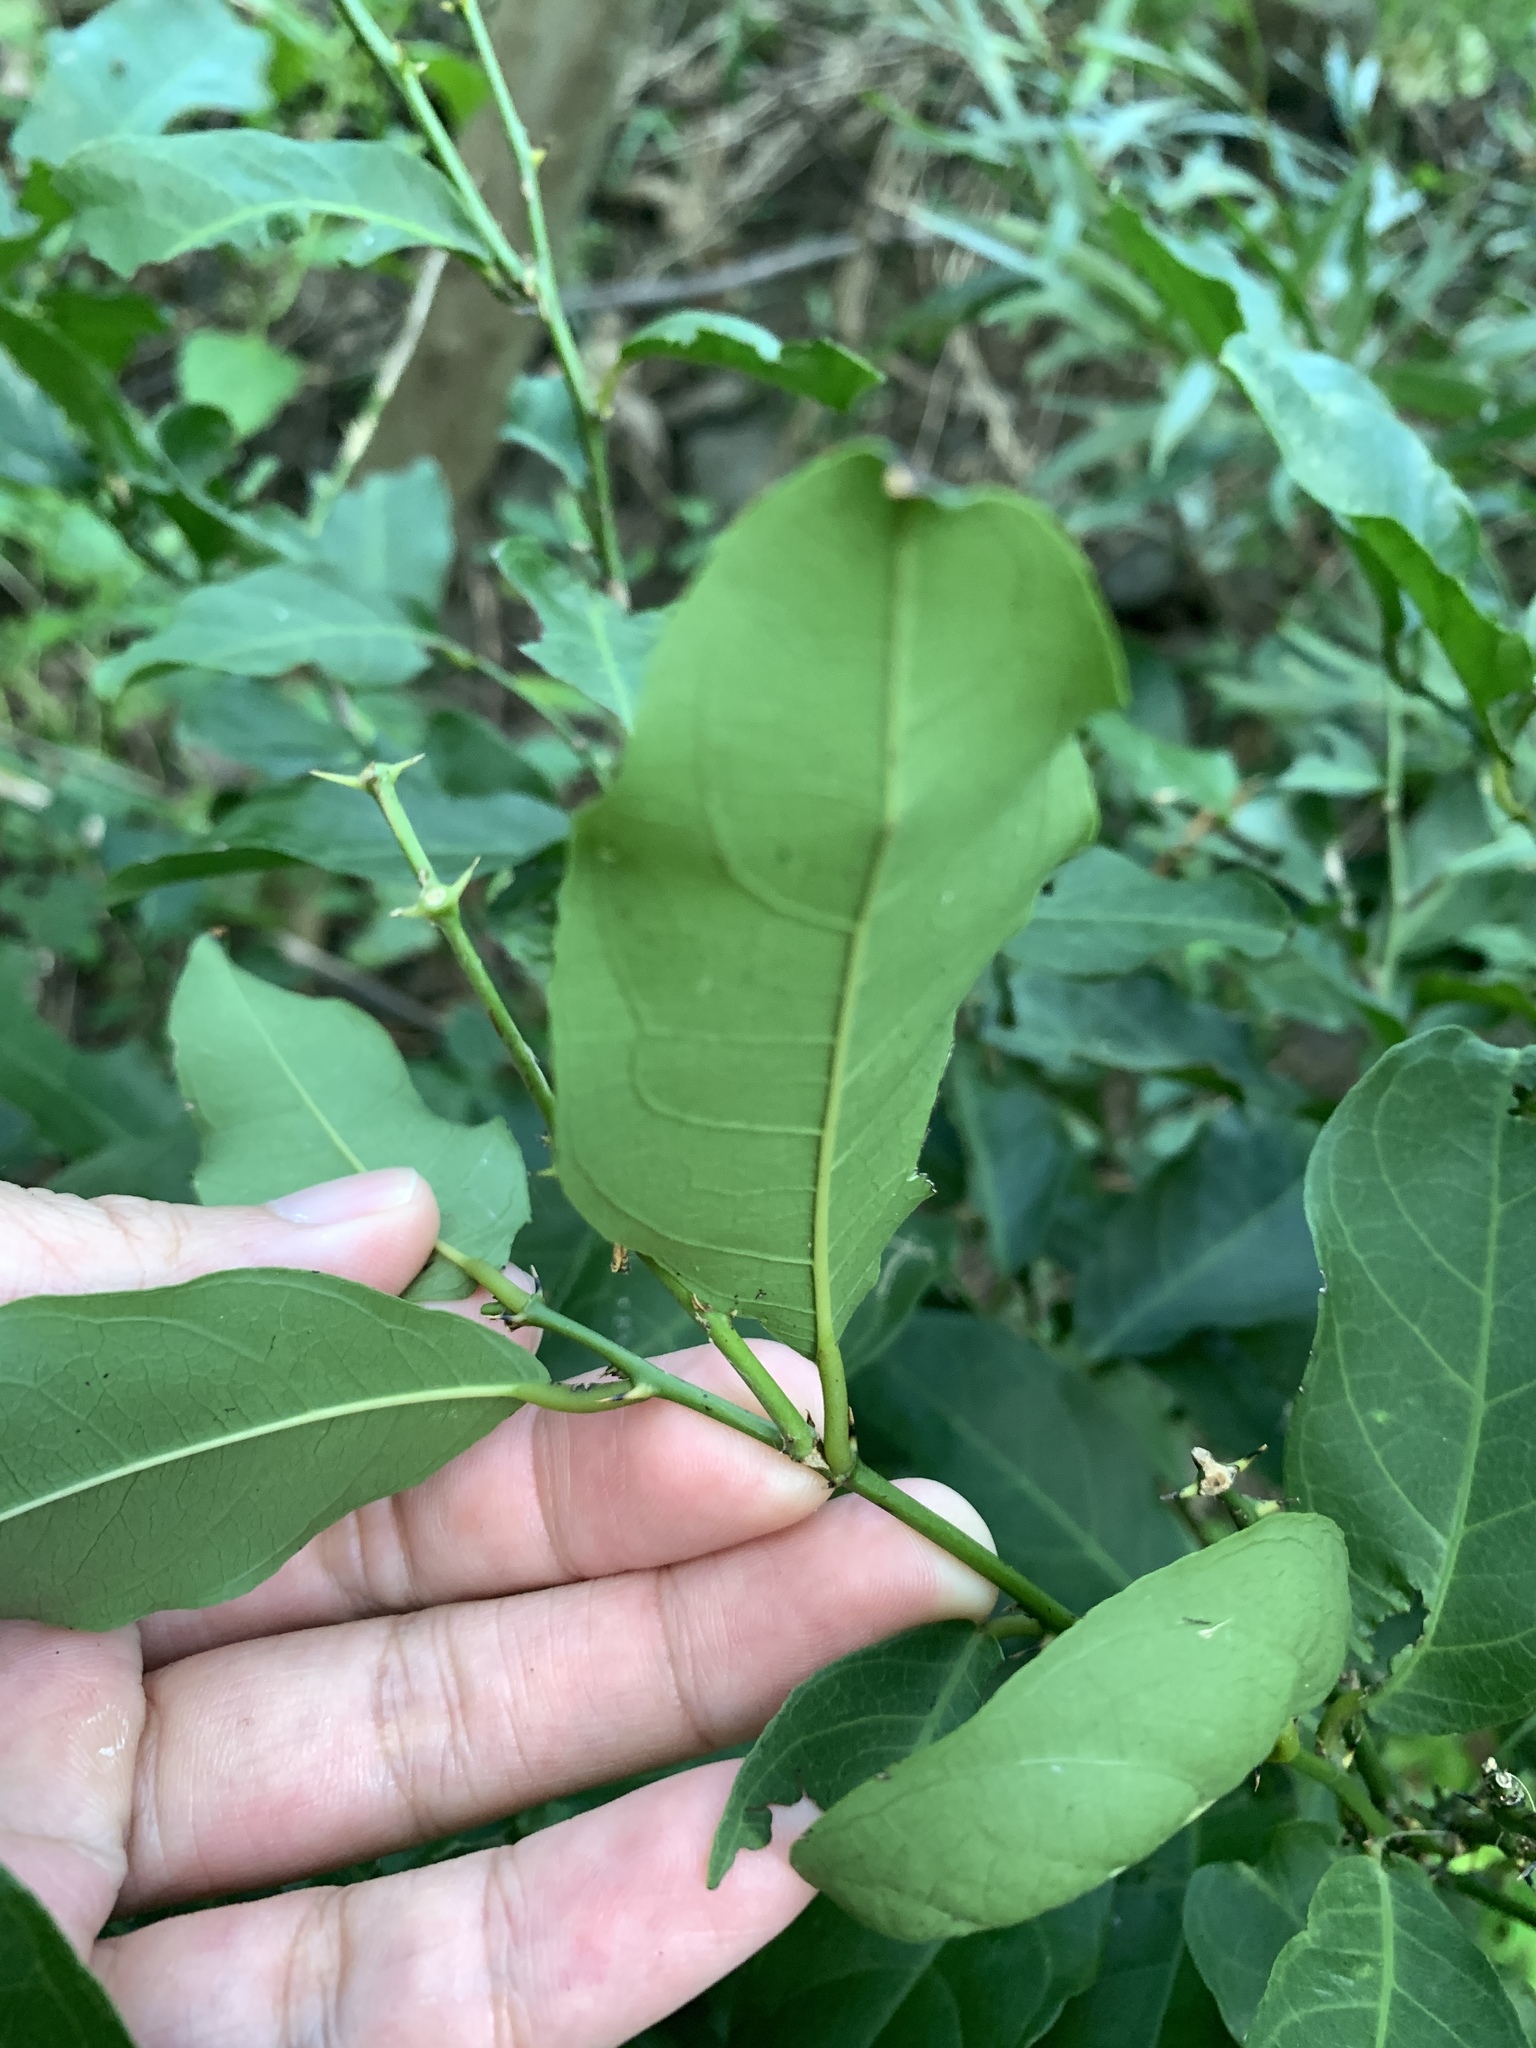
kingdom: Plantae
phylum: Tracheophyta
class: Magnoliopsida
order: Brassicales
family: Capparaceae
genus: Capparis
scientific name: Capparis micracantha
